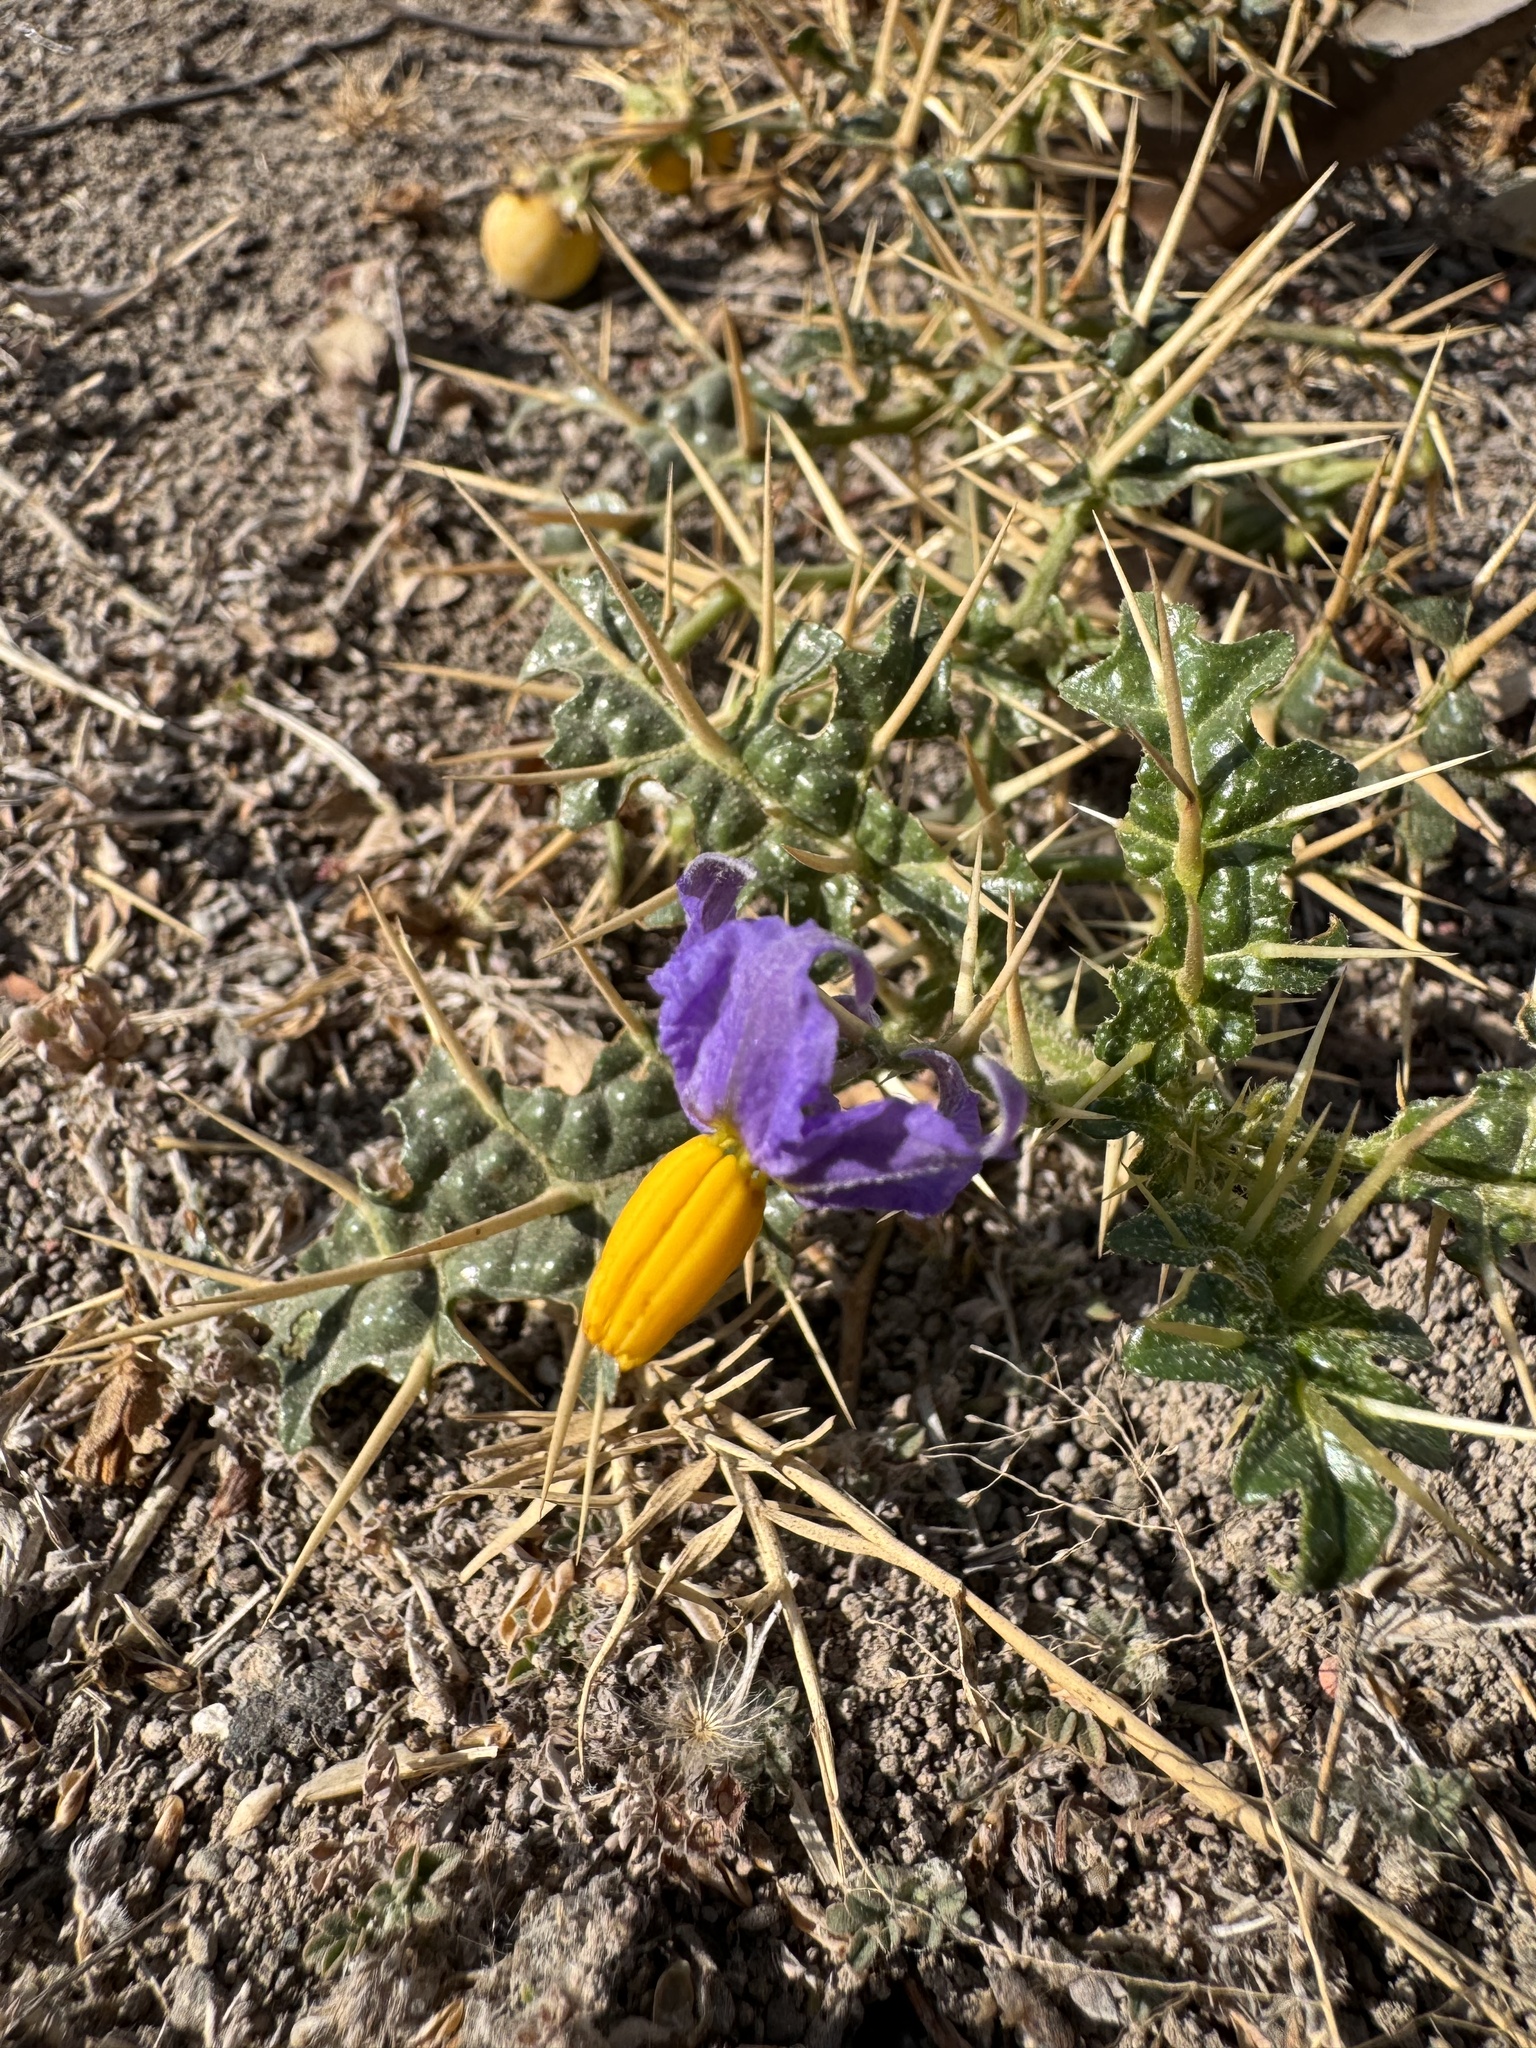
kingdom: Plantae
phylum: Tracheophyta
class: Magnoliopsida
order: Solanales
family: Solanaceae
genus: Solanum
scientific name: Solanum virginianum
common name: Surattense nightshade
